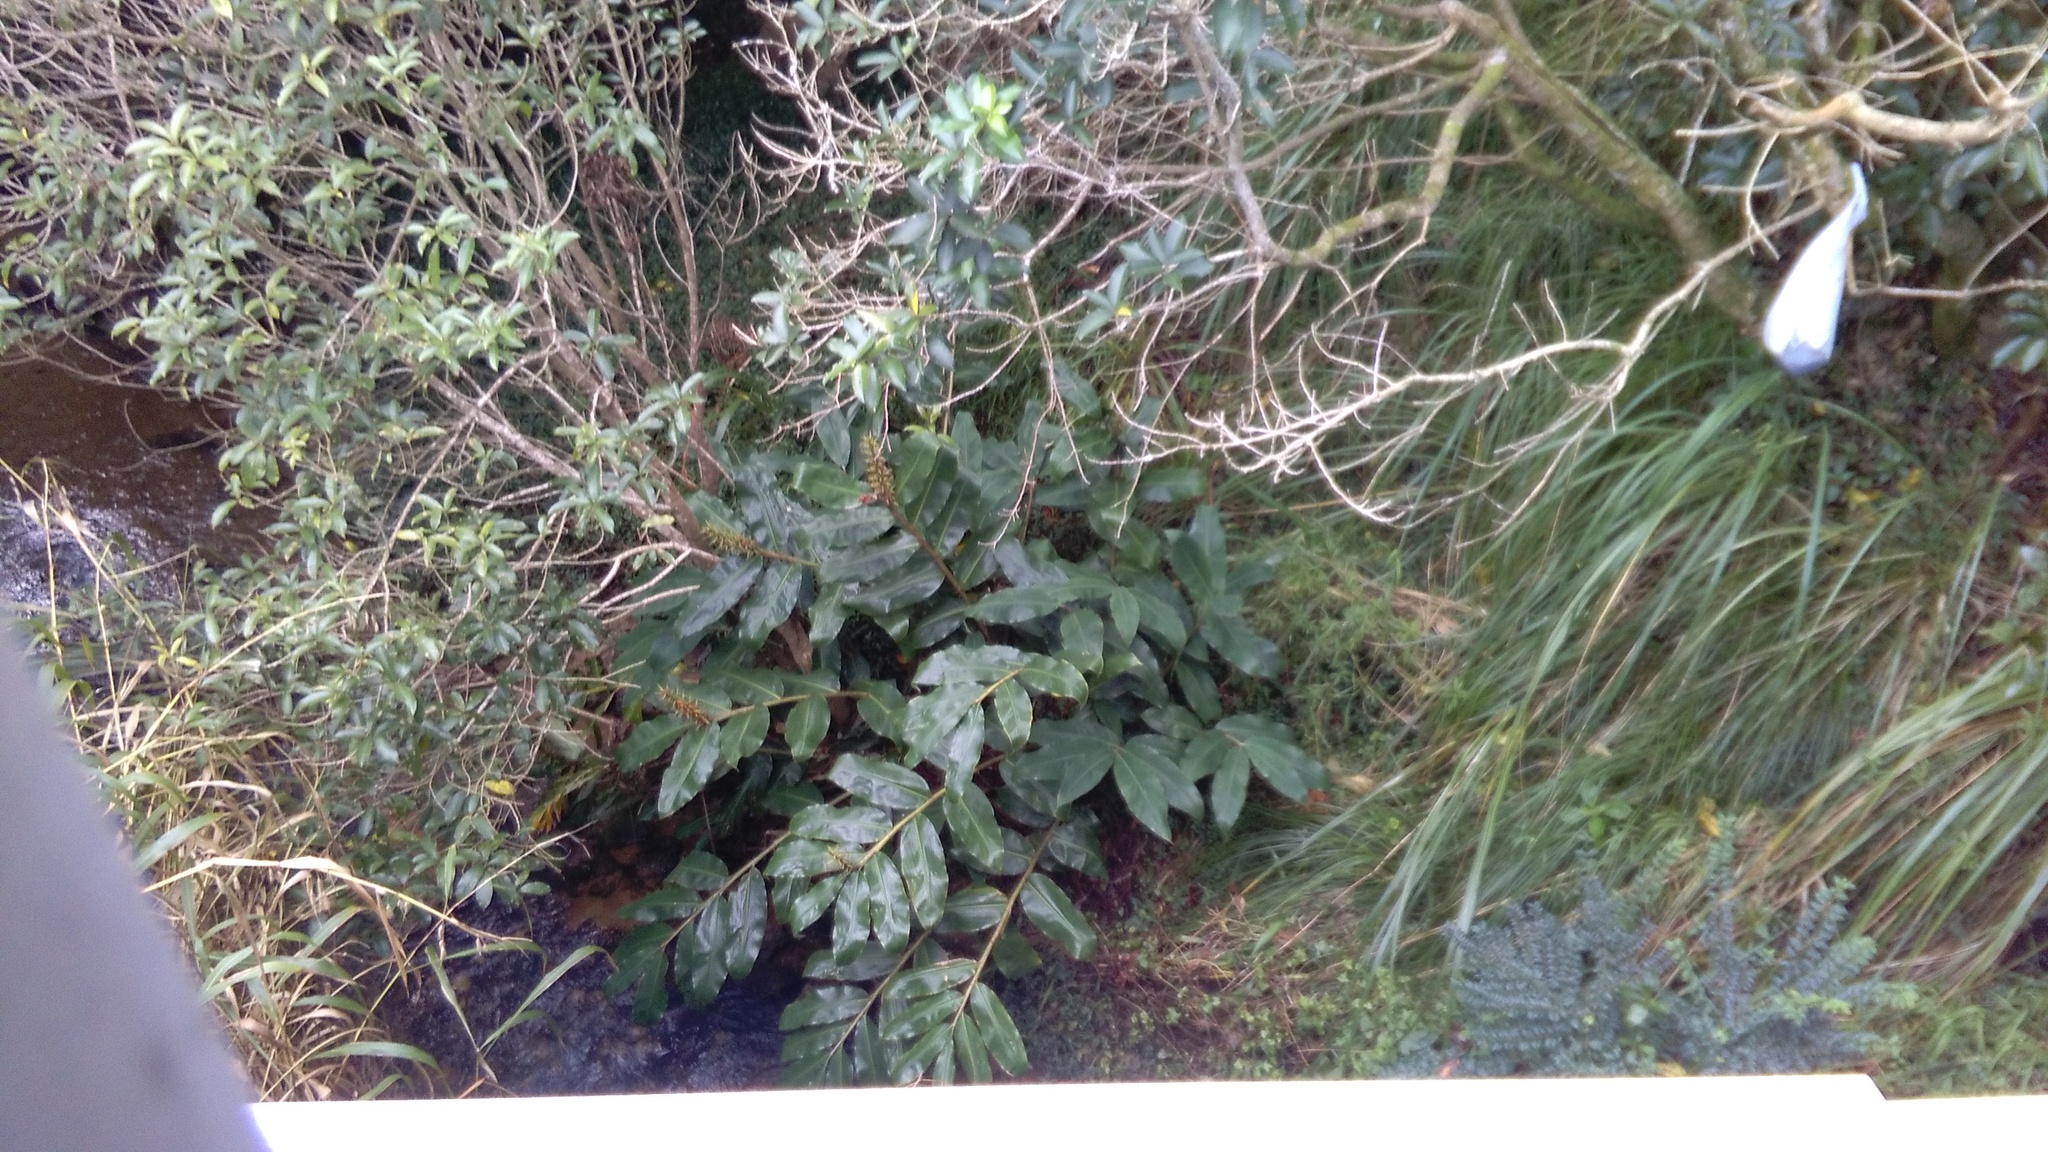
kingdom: Plantae
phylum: Tracheophyta
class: Liliopsida
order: Zingiberales
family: Zingiberaceae
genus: Hedychium
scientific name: Hedychium gardnerianum
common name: Himalayan ginger
